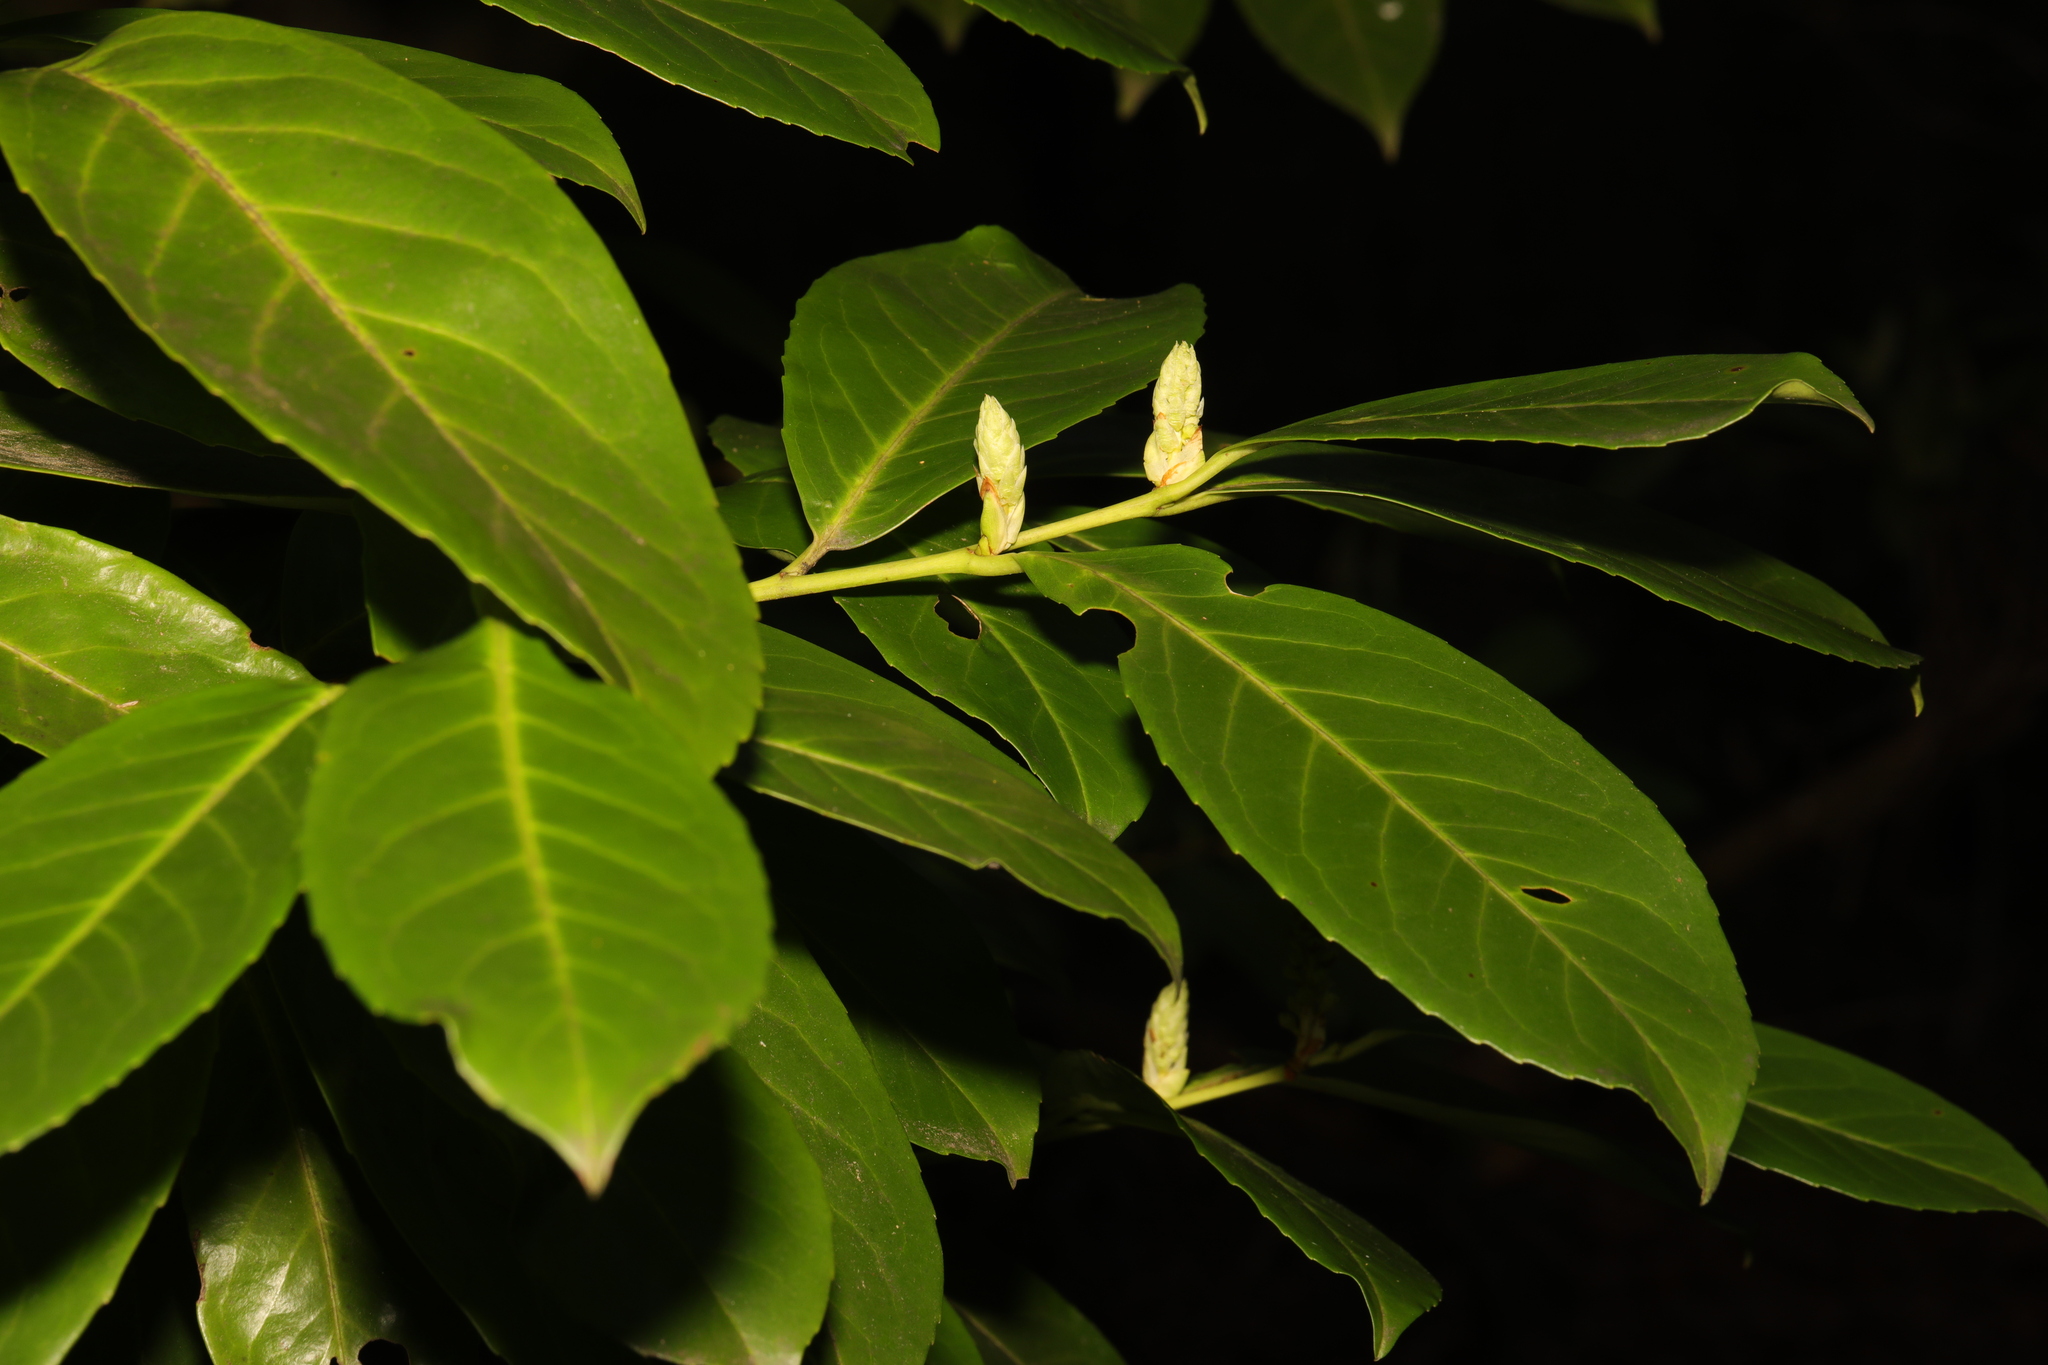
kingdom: Plantae
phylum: Tracheophyta
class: Magnoliopsida
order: Rosales
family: Rosaceae
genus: Prunus
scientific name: Prunus laurocerasus
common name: Cherry laurel
